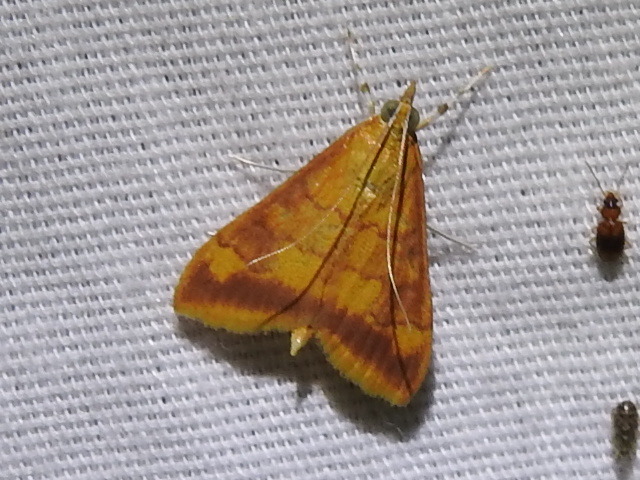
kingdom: Animalia
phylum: Arthropoda
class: Insecta
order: Lepidoptera
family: Crambidae
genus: Pyrausta
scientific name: Pyrausta pseudonythesalis
